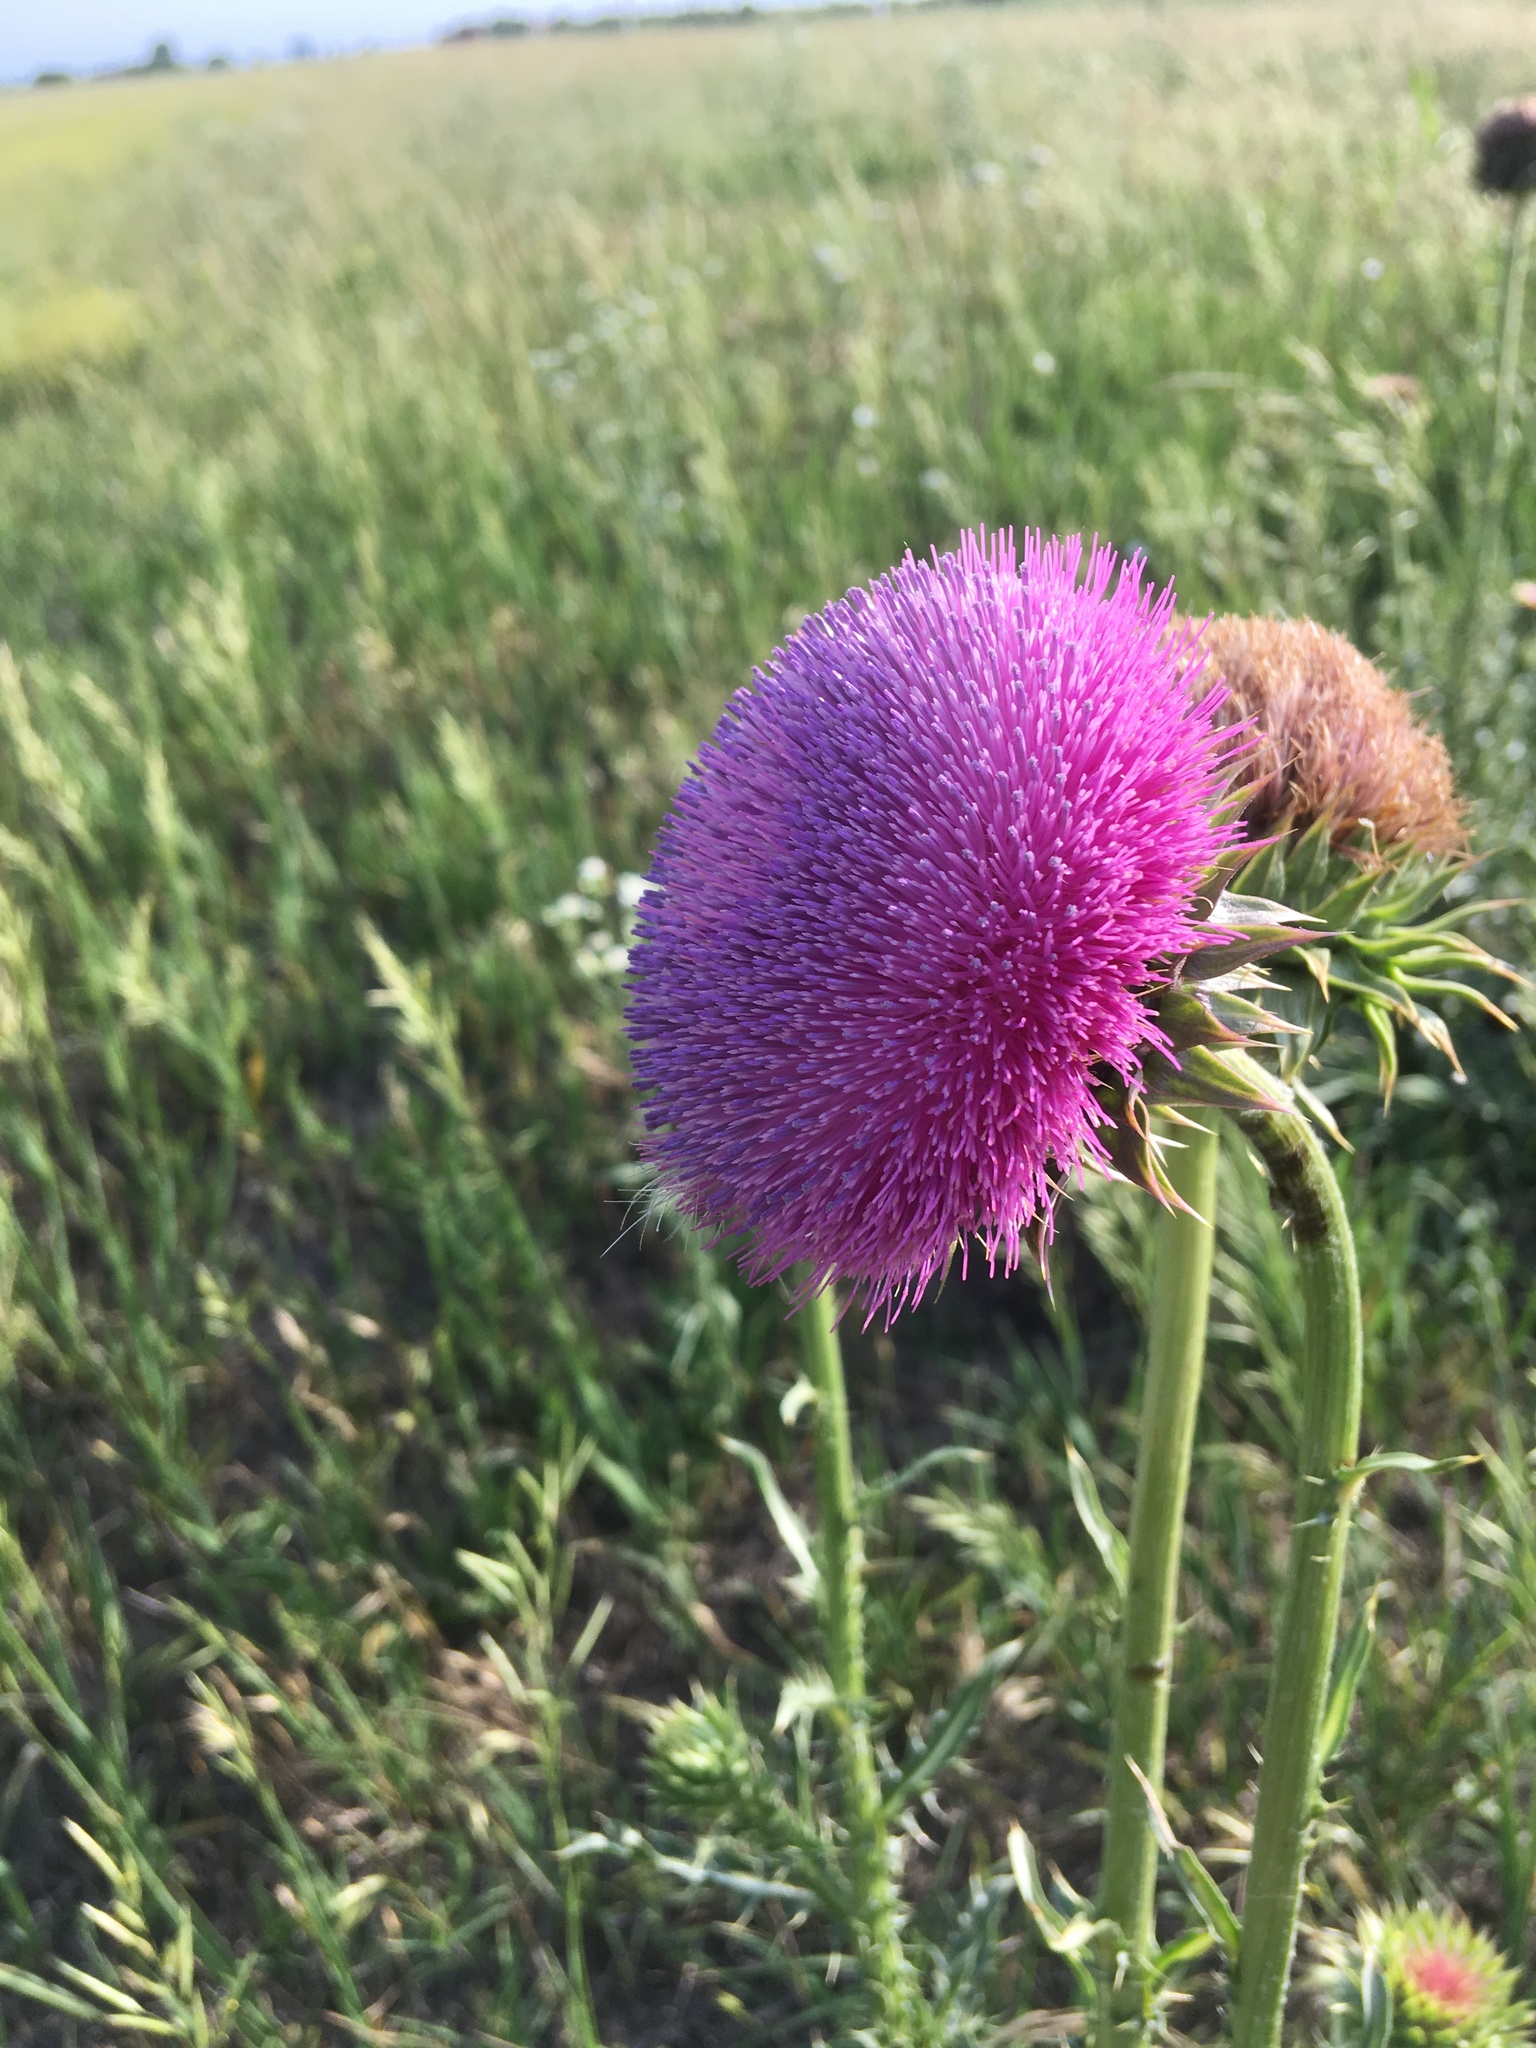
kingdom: Plantae
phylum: Tracheophyta
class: Magnoliopsida
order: Asterales
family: Asteraceae
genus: Carduus
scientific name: Carduus nutans
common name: Musk thistle
